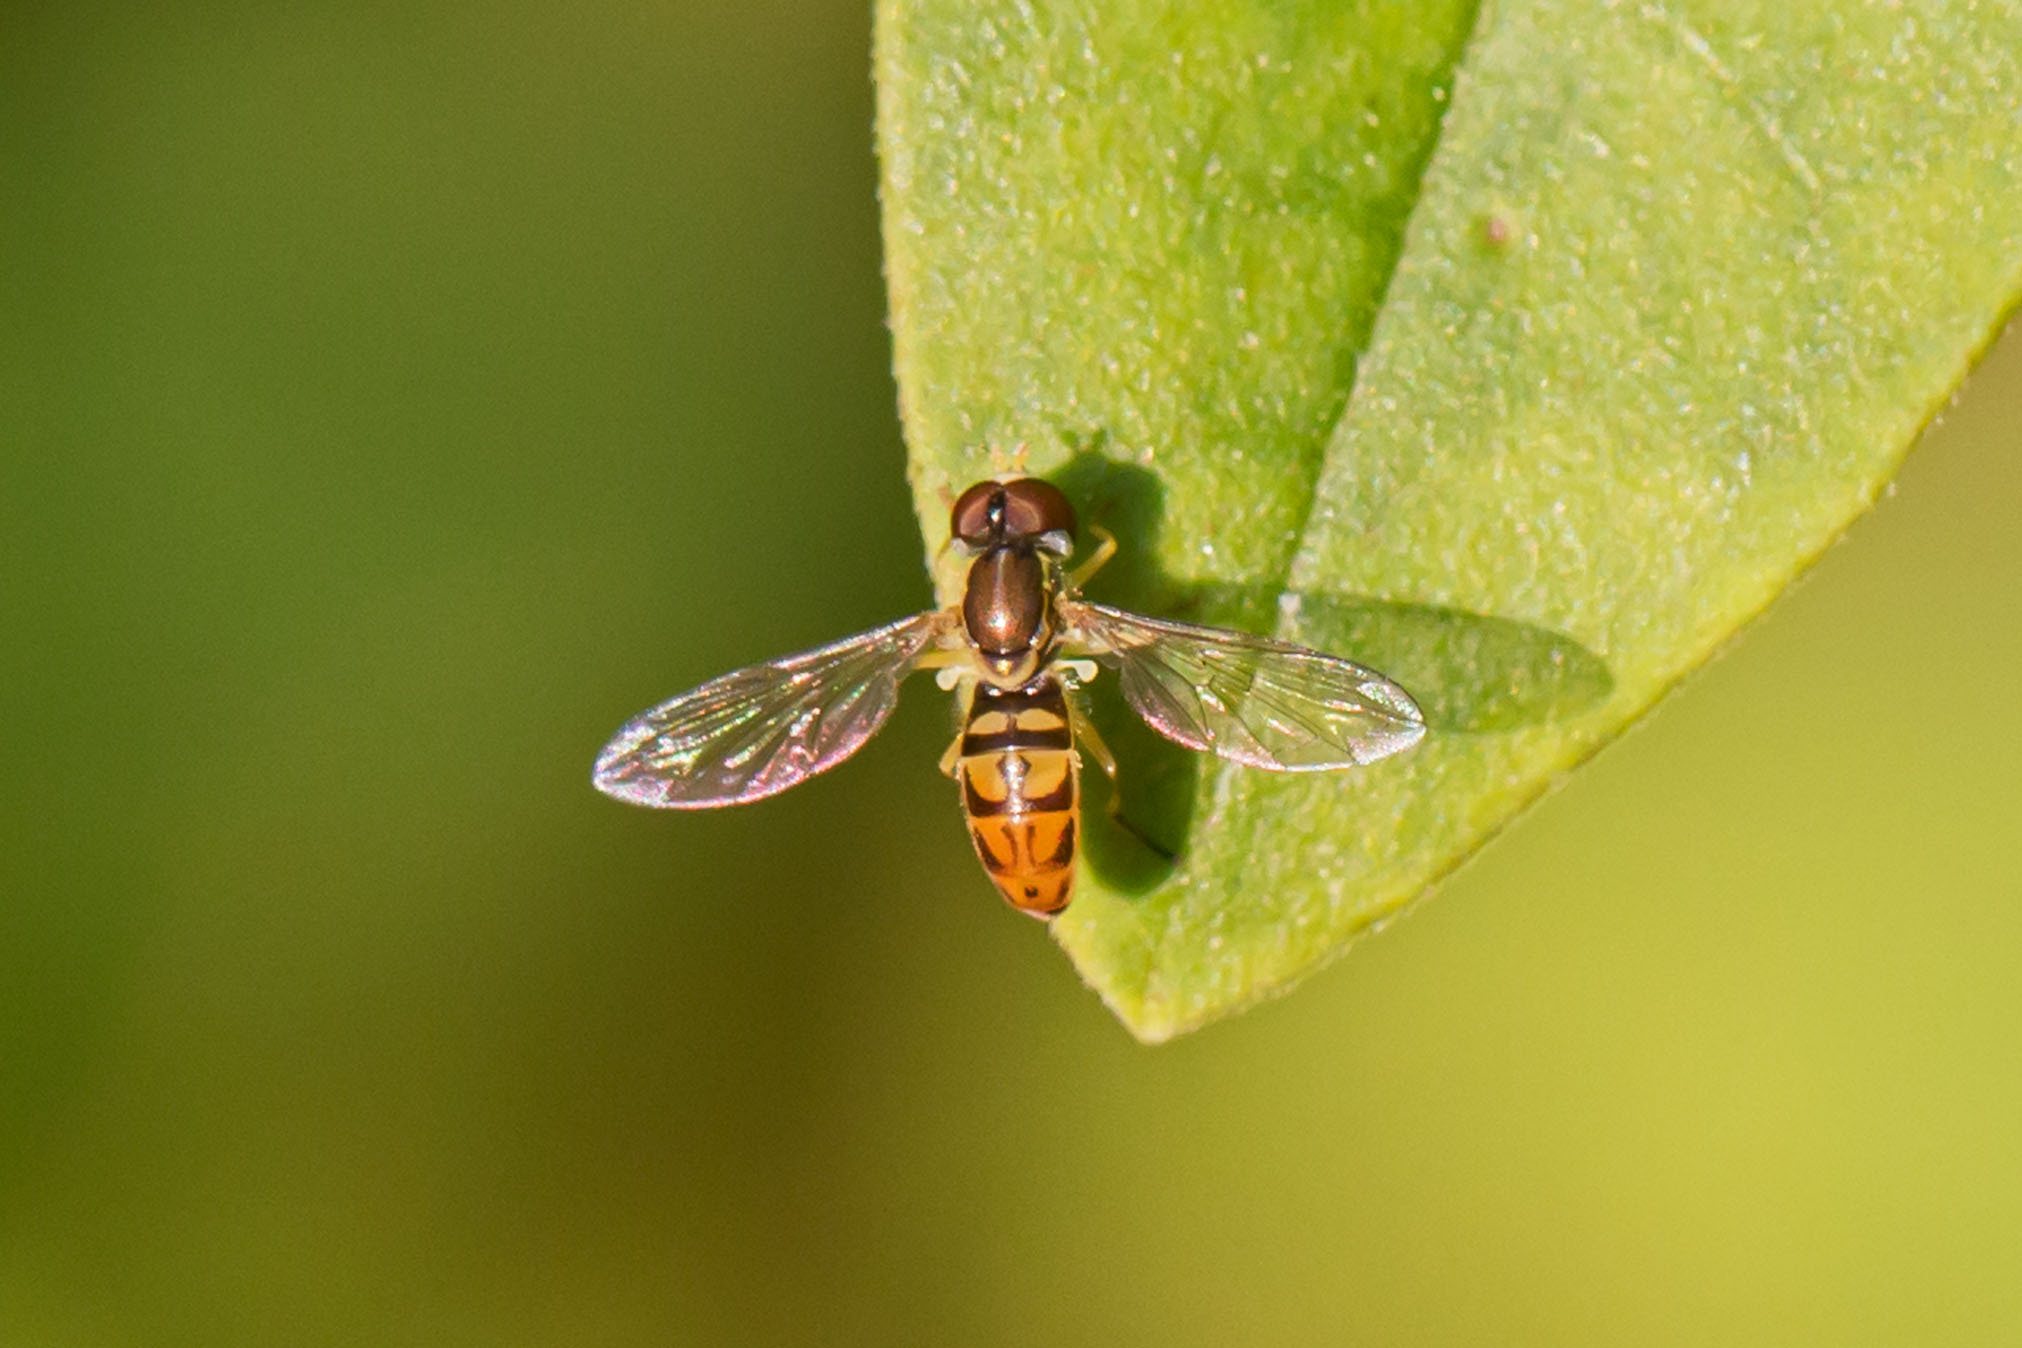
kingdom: Animalia
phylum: Arthropoda
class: Insecta
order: Diptera
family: Syrphidae
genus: Toxomerus
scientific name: Toxomerus marginatus
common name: Syrphid fly
